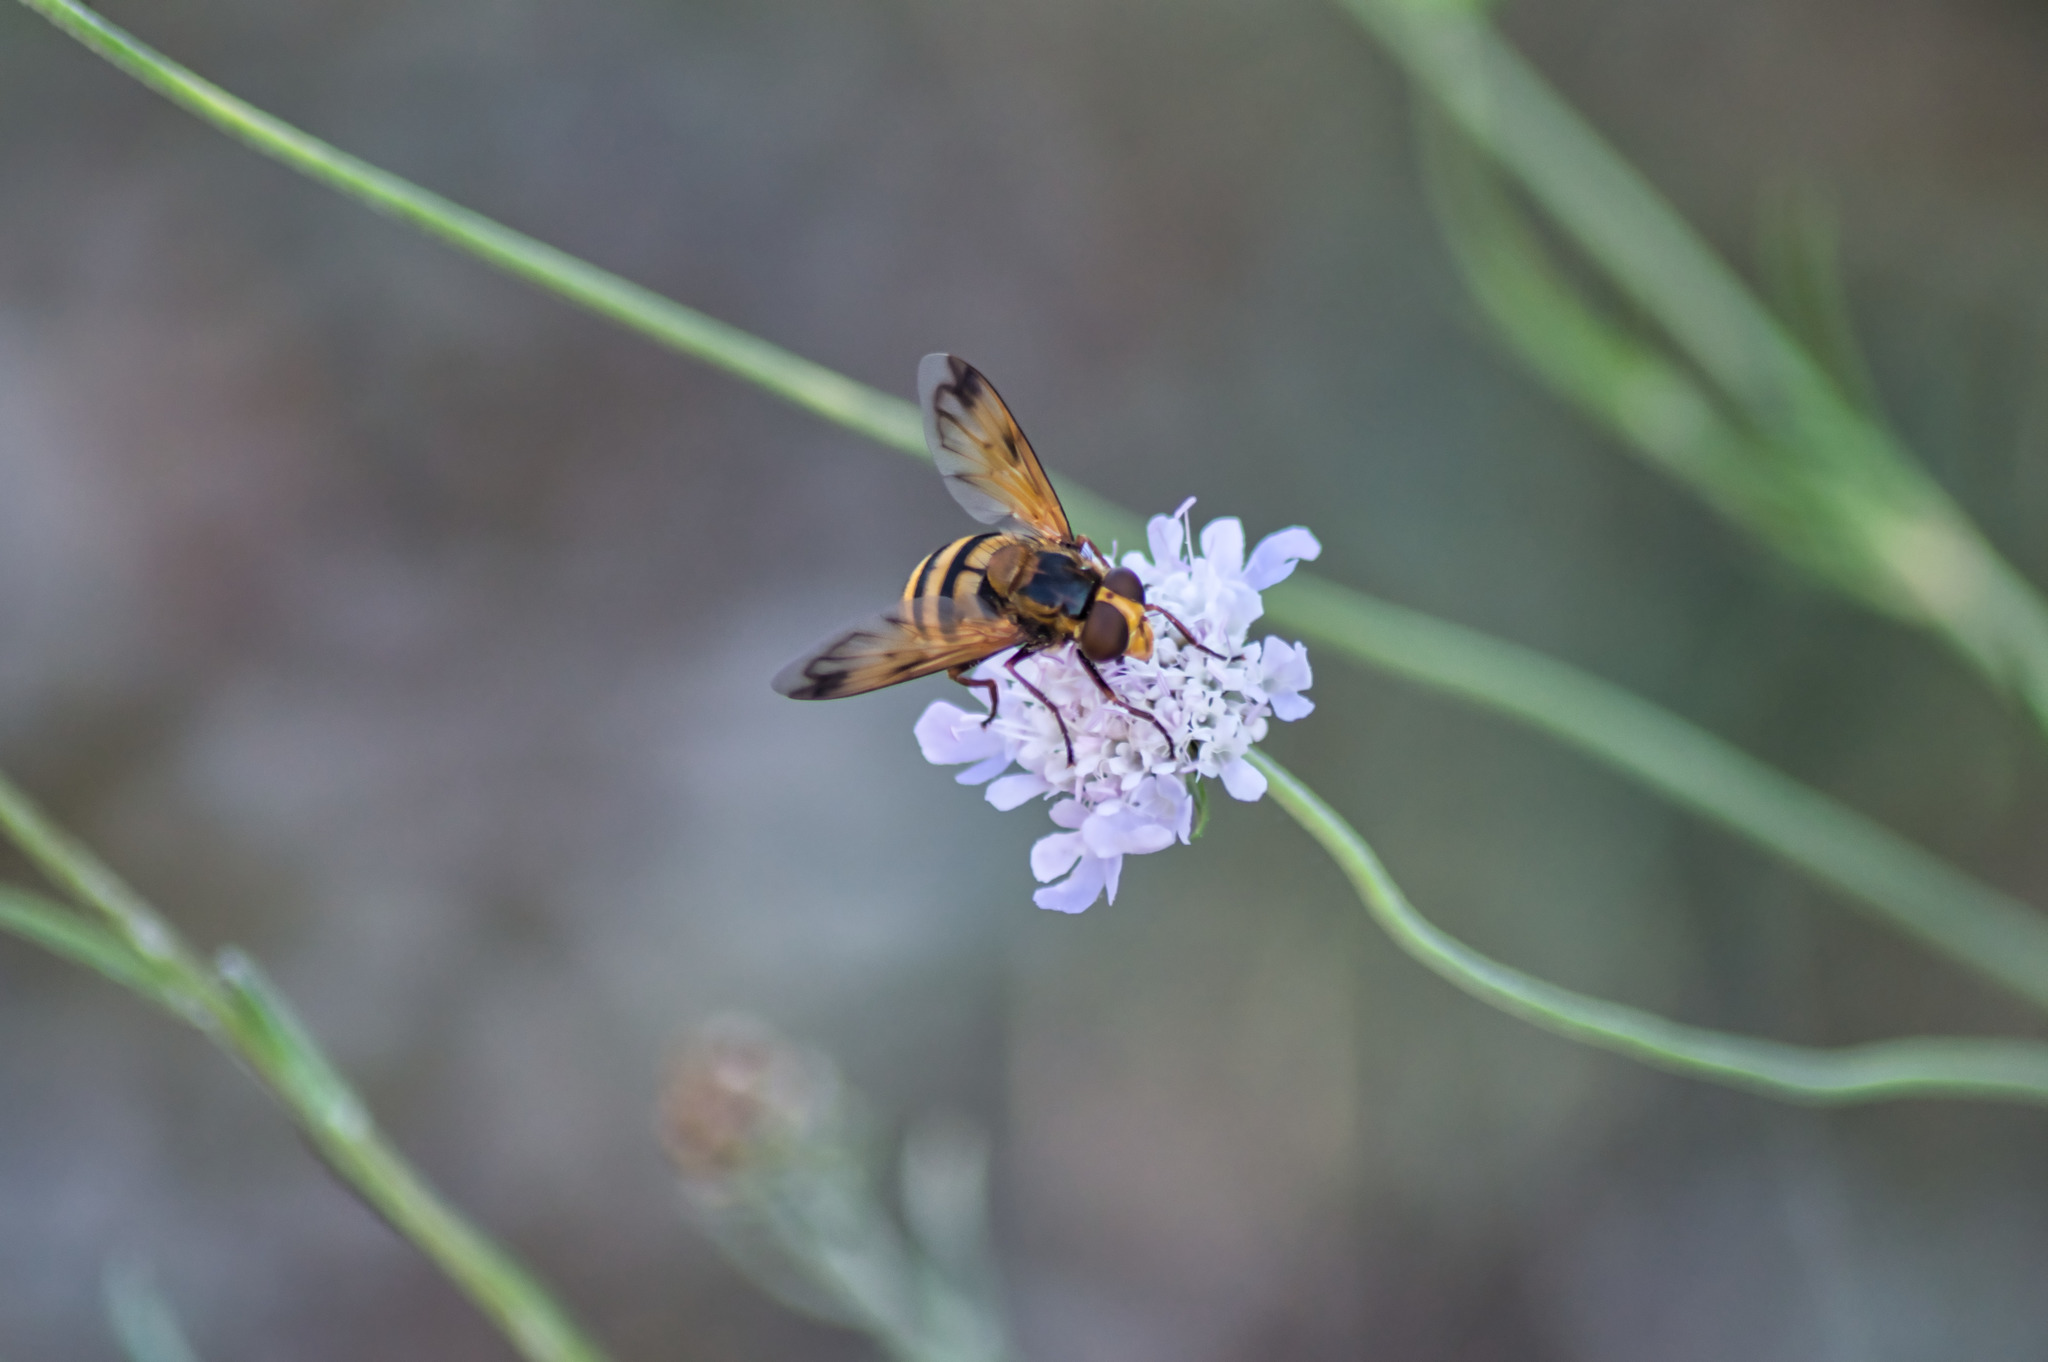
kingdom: Animalia
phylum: Arthropoda
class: Insecta
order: Diptera
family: Syrphidae
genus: Volucella
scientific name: Volucella inanis
